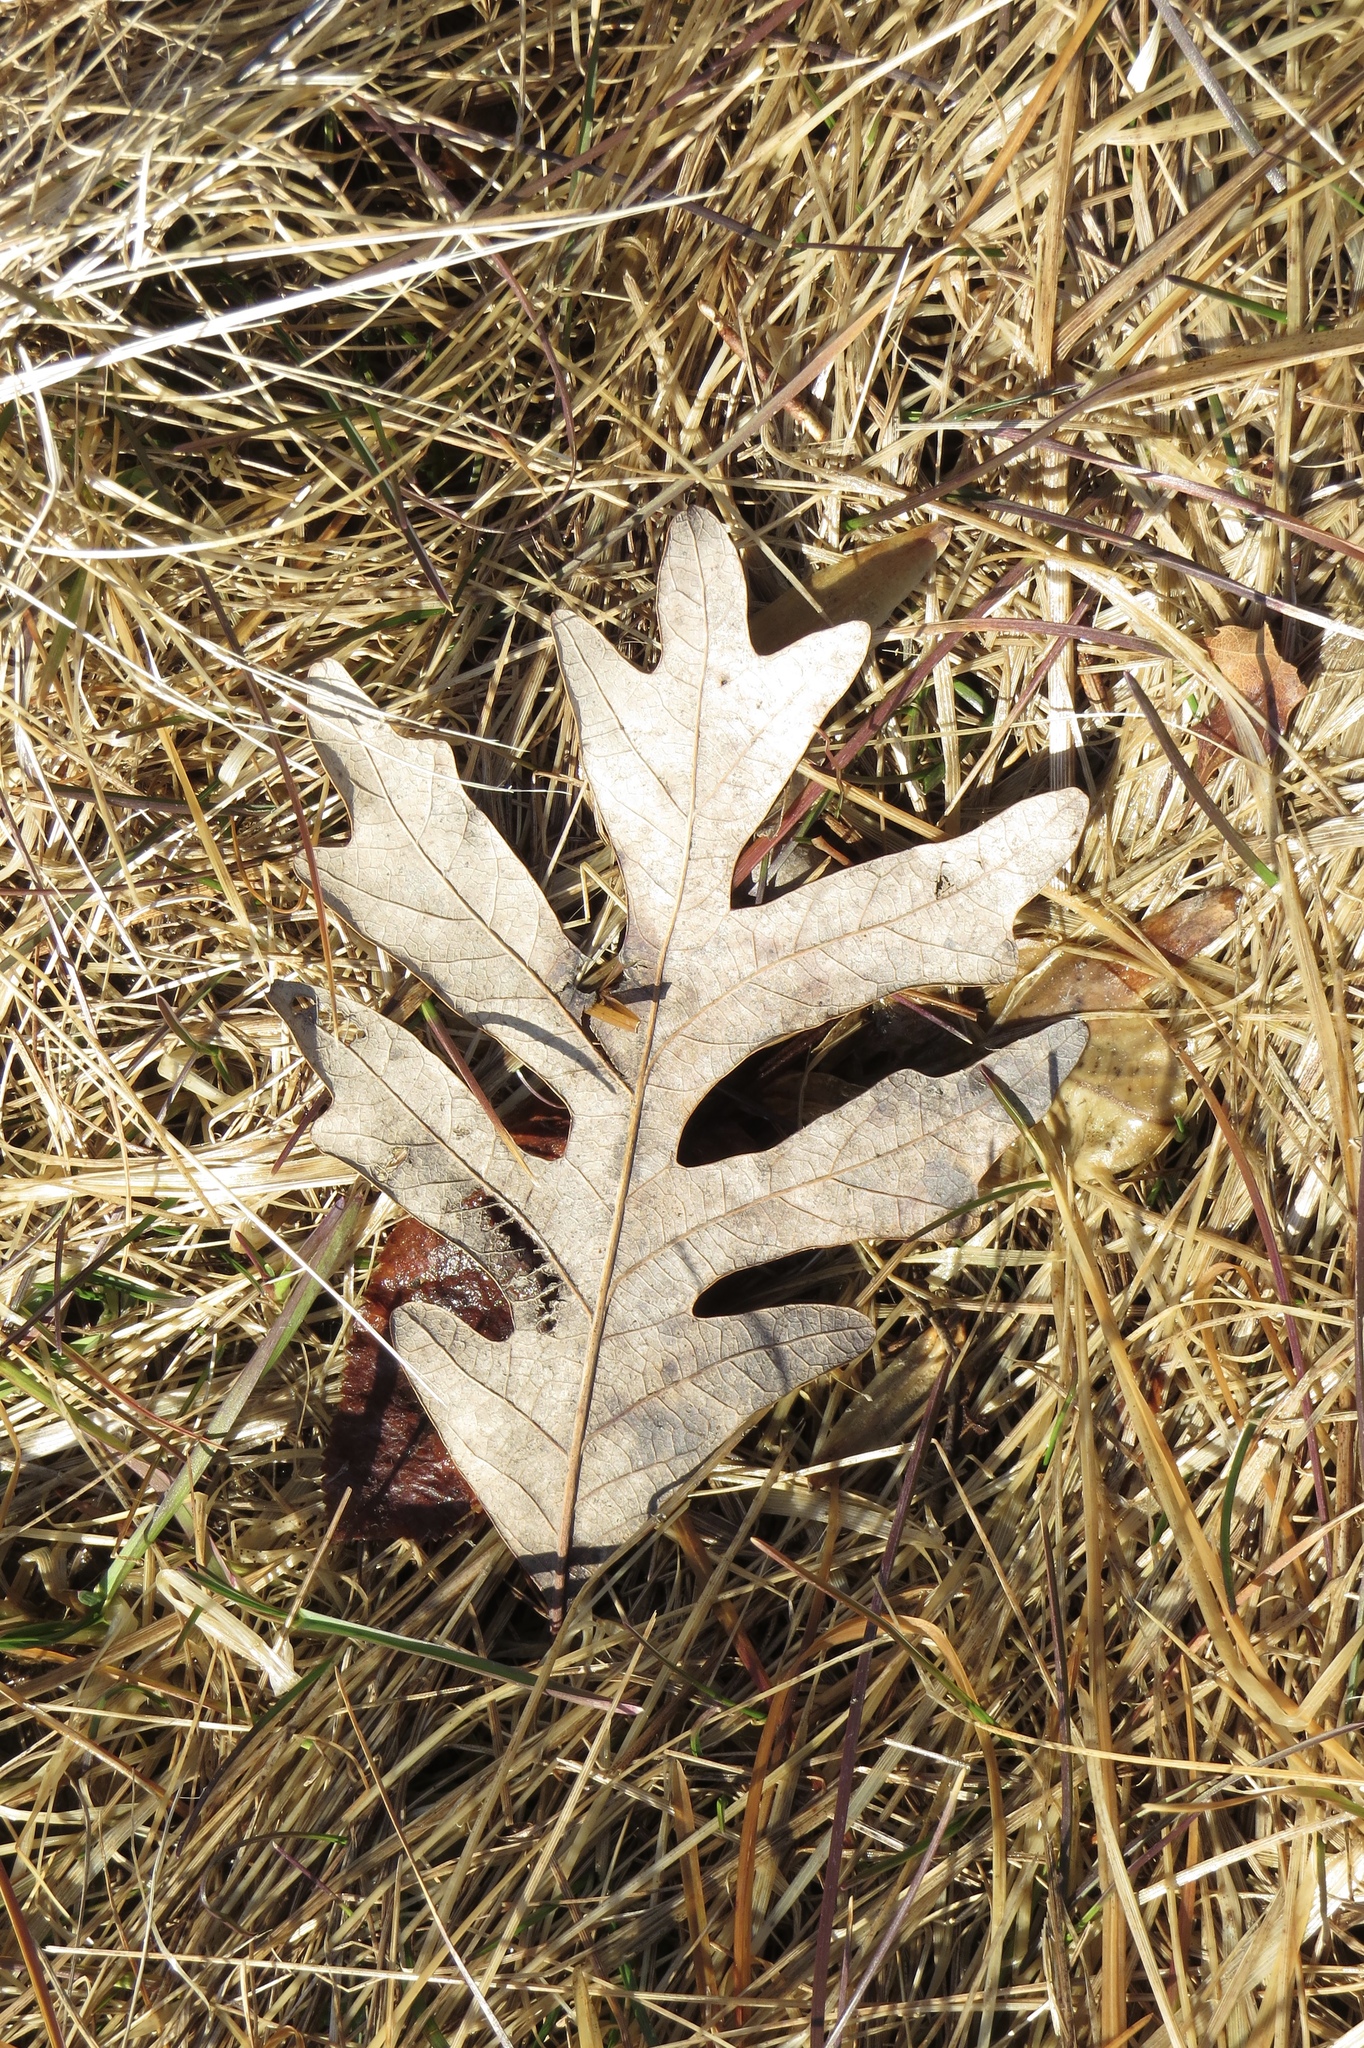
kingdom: Plantae
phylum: Tracheophyta
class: Magnoliopsida
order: Fagales
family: Fagaceae
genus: Quercus
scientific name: Quercus alba
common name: White oak
